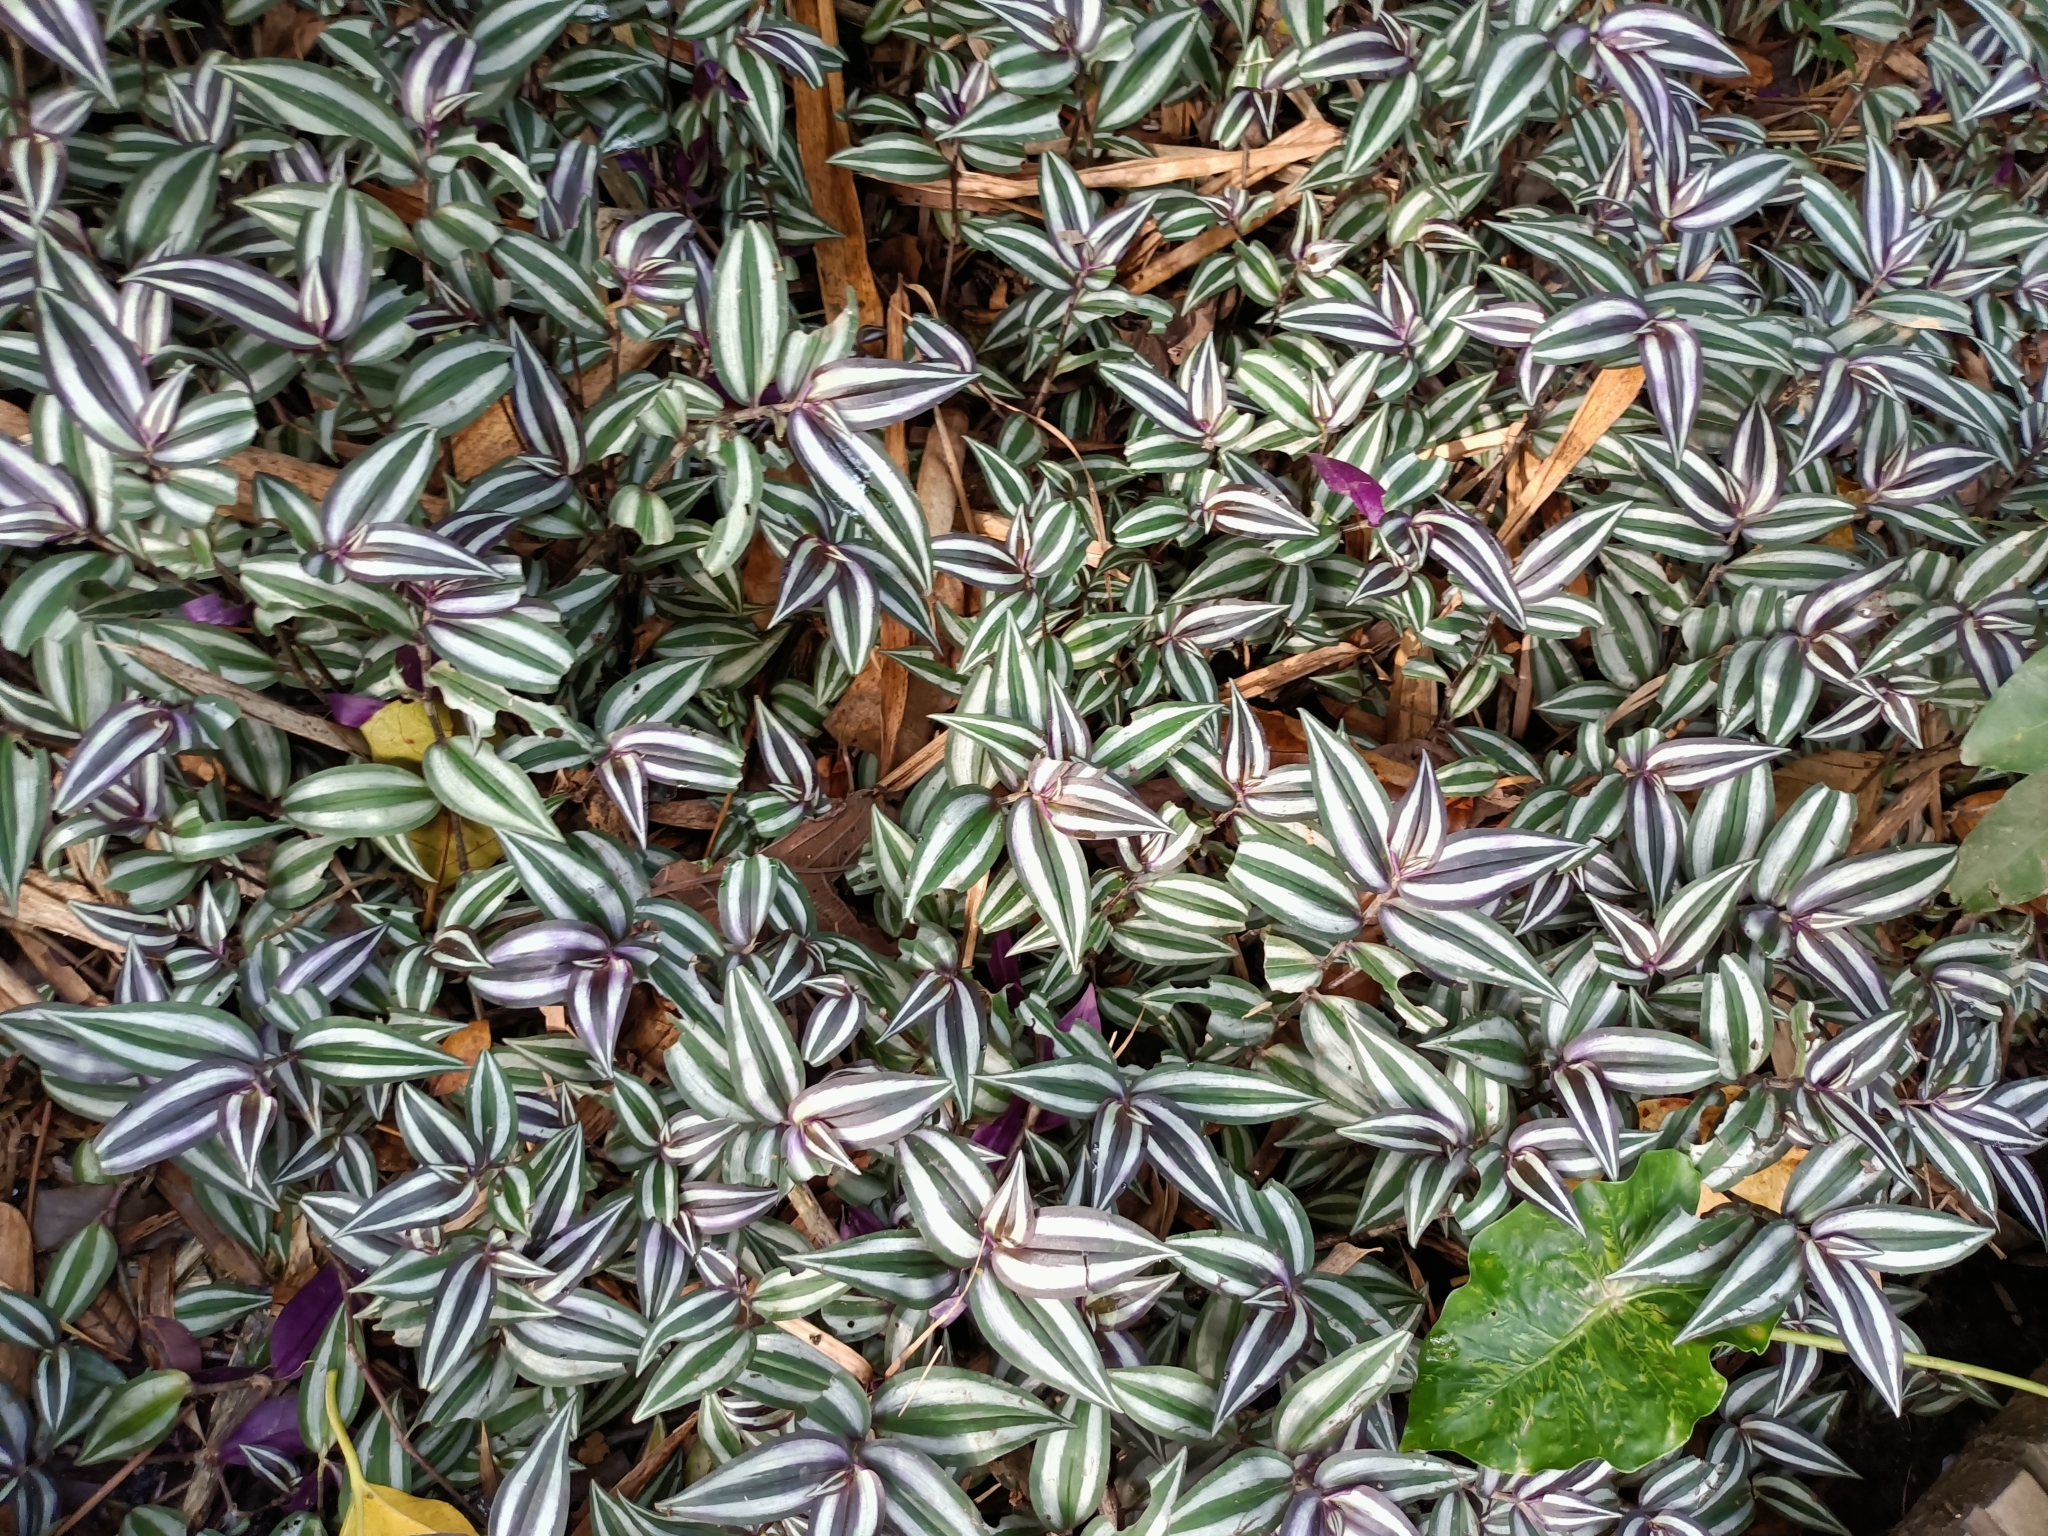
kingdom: Plantae
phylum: Tracheophyta
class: Liliopsida
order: Commelinales
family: Commelinaceae
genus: Tradescantia
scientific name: Tradescantia zebrina
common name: Inchplant
